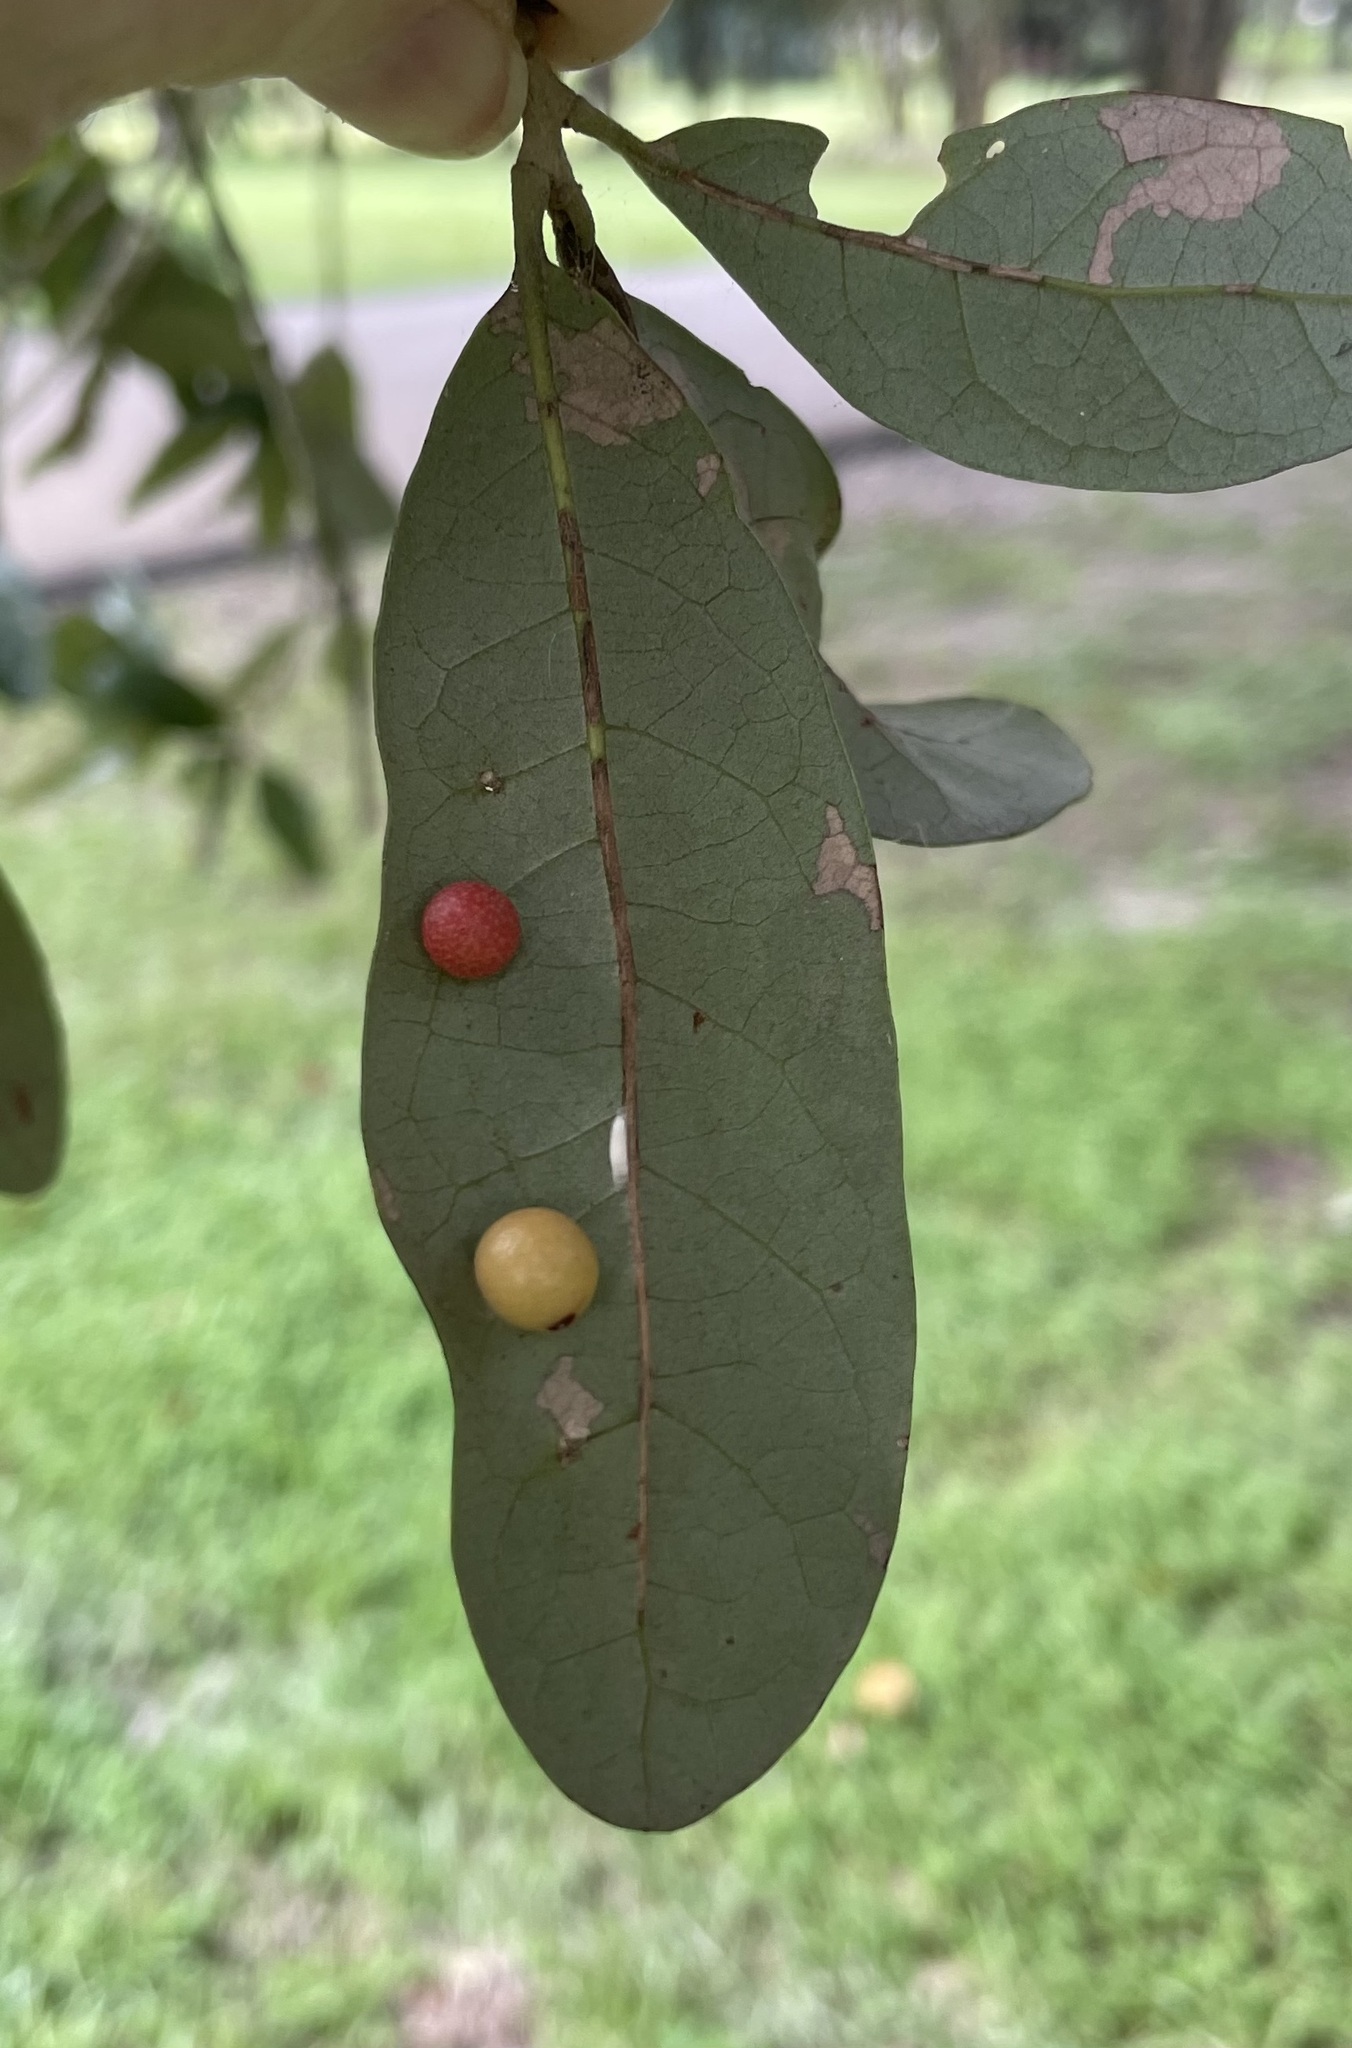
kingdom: Animalia
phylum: Arthropoda
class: Insecta
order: Hymenoptera
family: Cynipidae
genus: Belonocnema
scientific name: Belonocnema kinseyi
